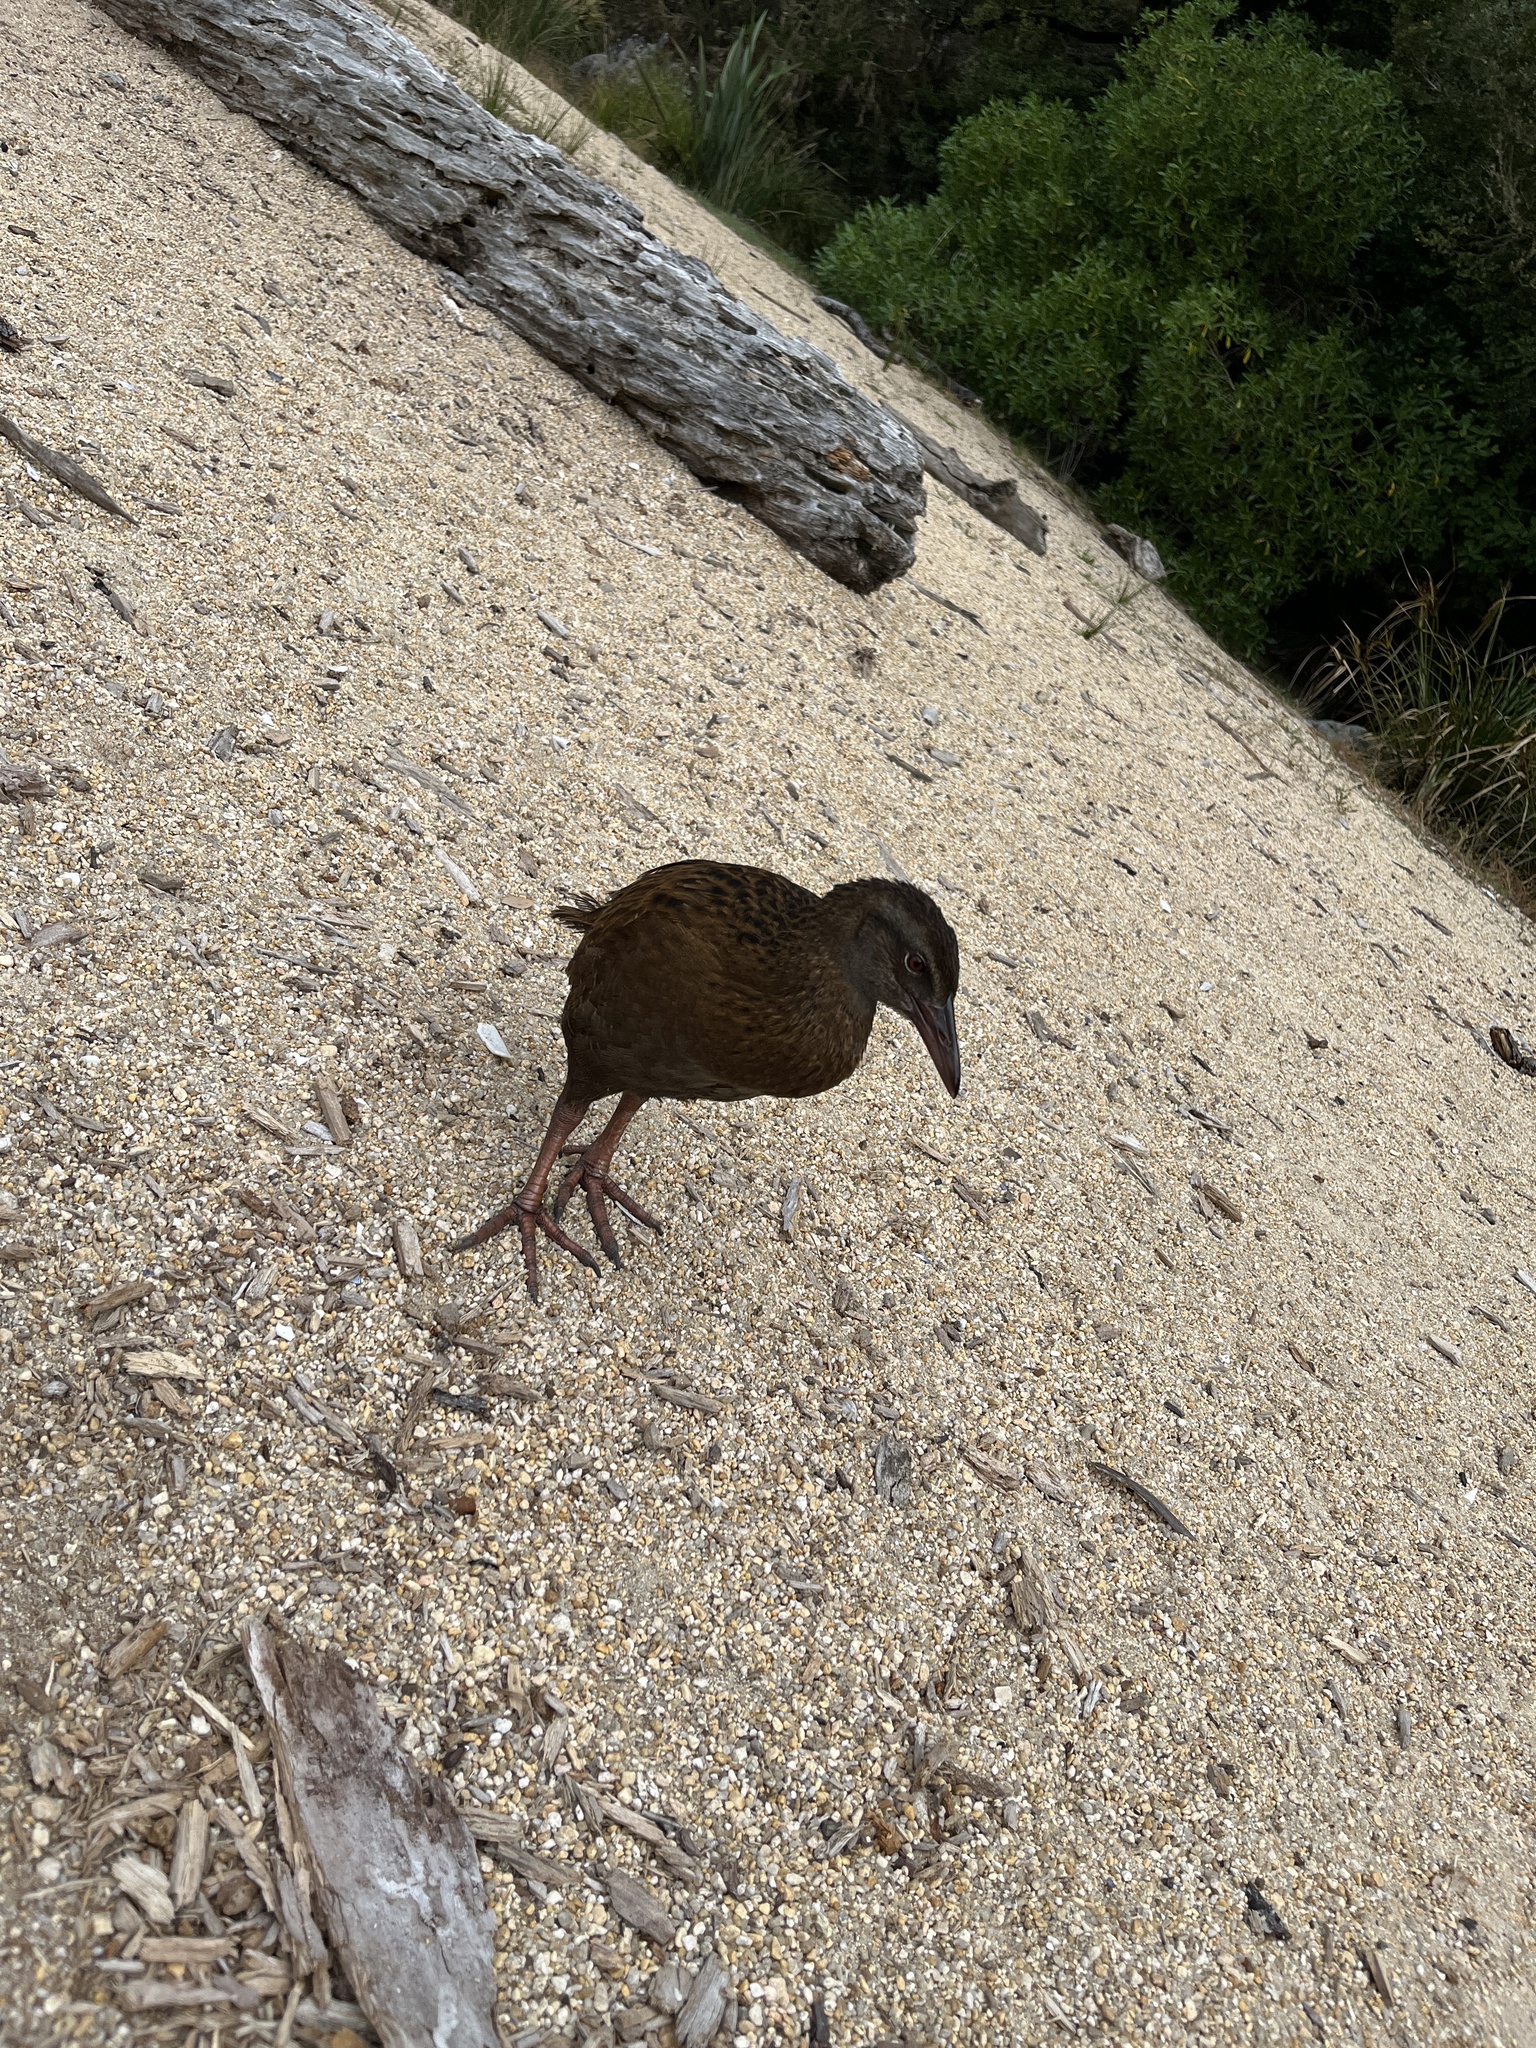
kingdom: Animalia
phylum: Chordata
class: Aves
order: Gruiformes
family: Rallidae
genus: Gallirallus
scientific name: Gallirallus australis
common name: Weka
